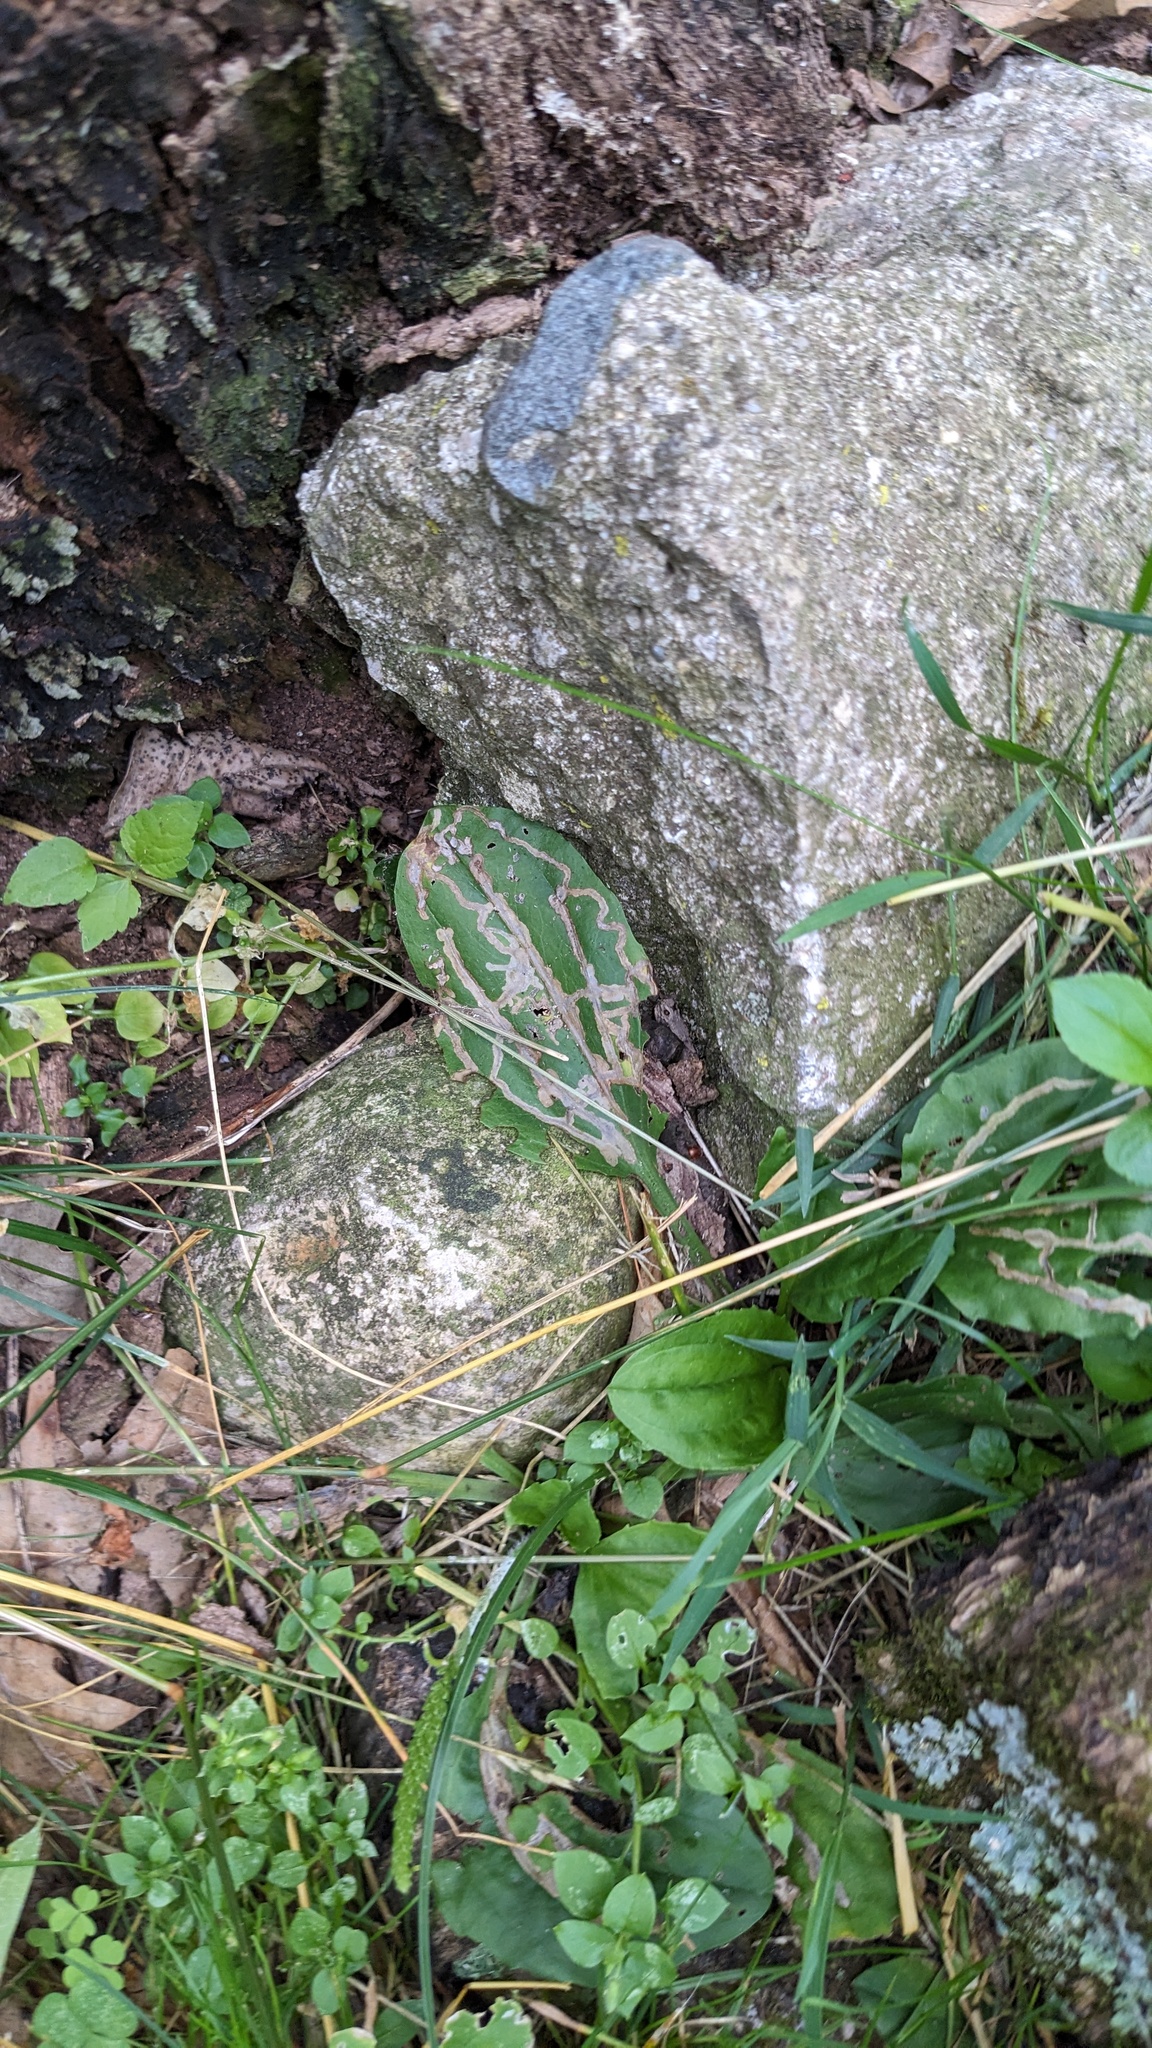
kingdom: Animalia
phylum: Arthropoda
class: Insecta
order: Coleoptera
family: Chrysomelidae
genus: Dibolia
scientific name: Dibolia borealis
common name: Northern plantain flea beetle
